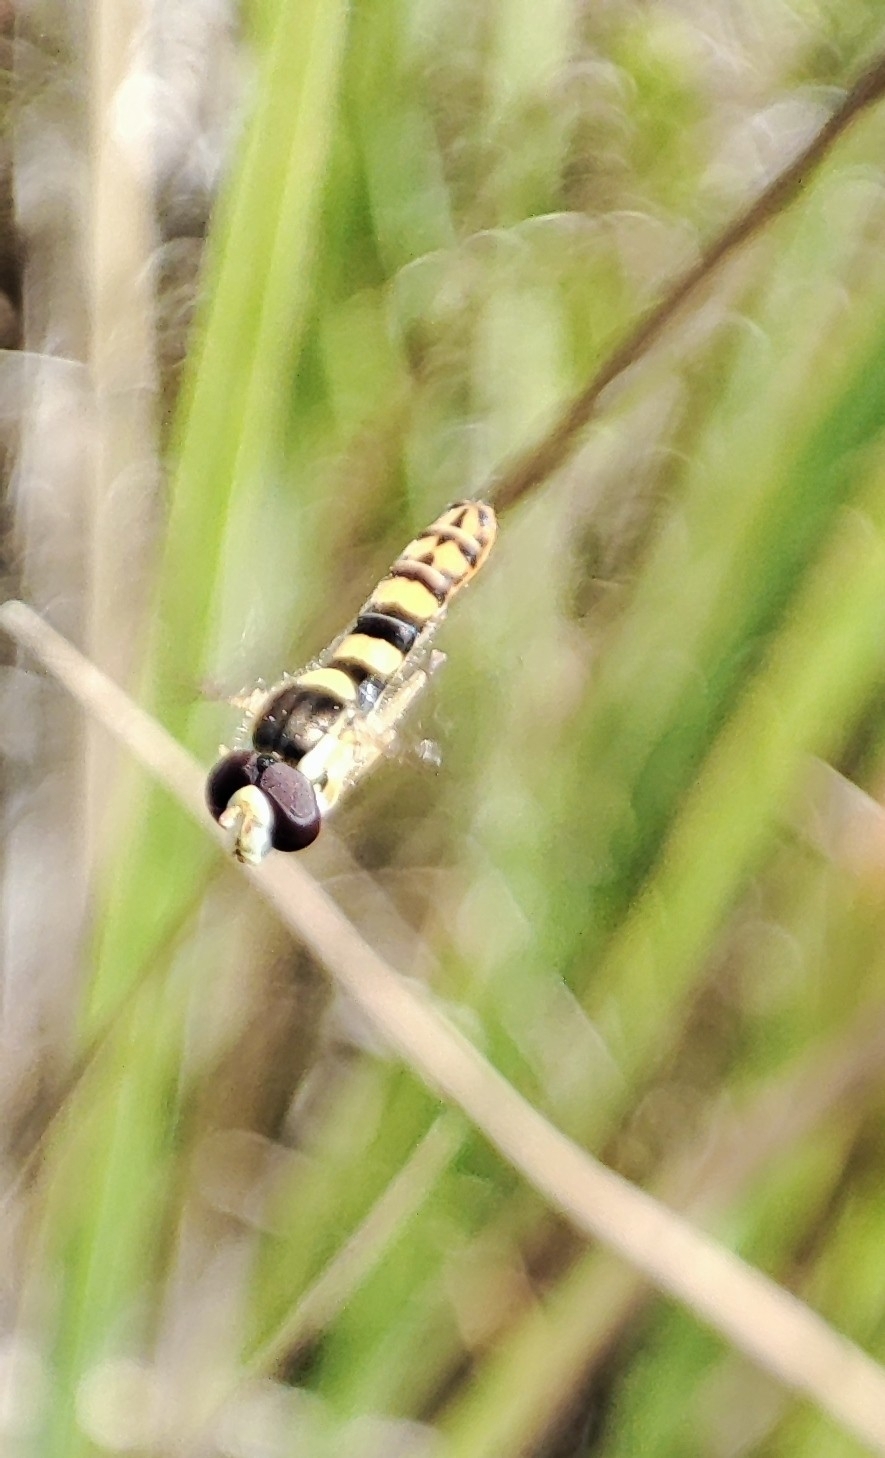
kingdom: Animalia
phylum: Arthropoda
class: Insecta
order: Diptera
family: Syrphidae
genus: Sphaerophoria
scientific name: Sphaerophoria scripta
